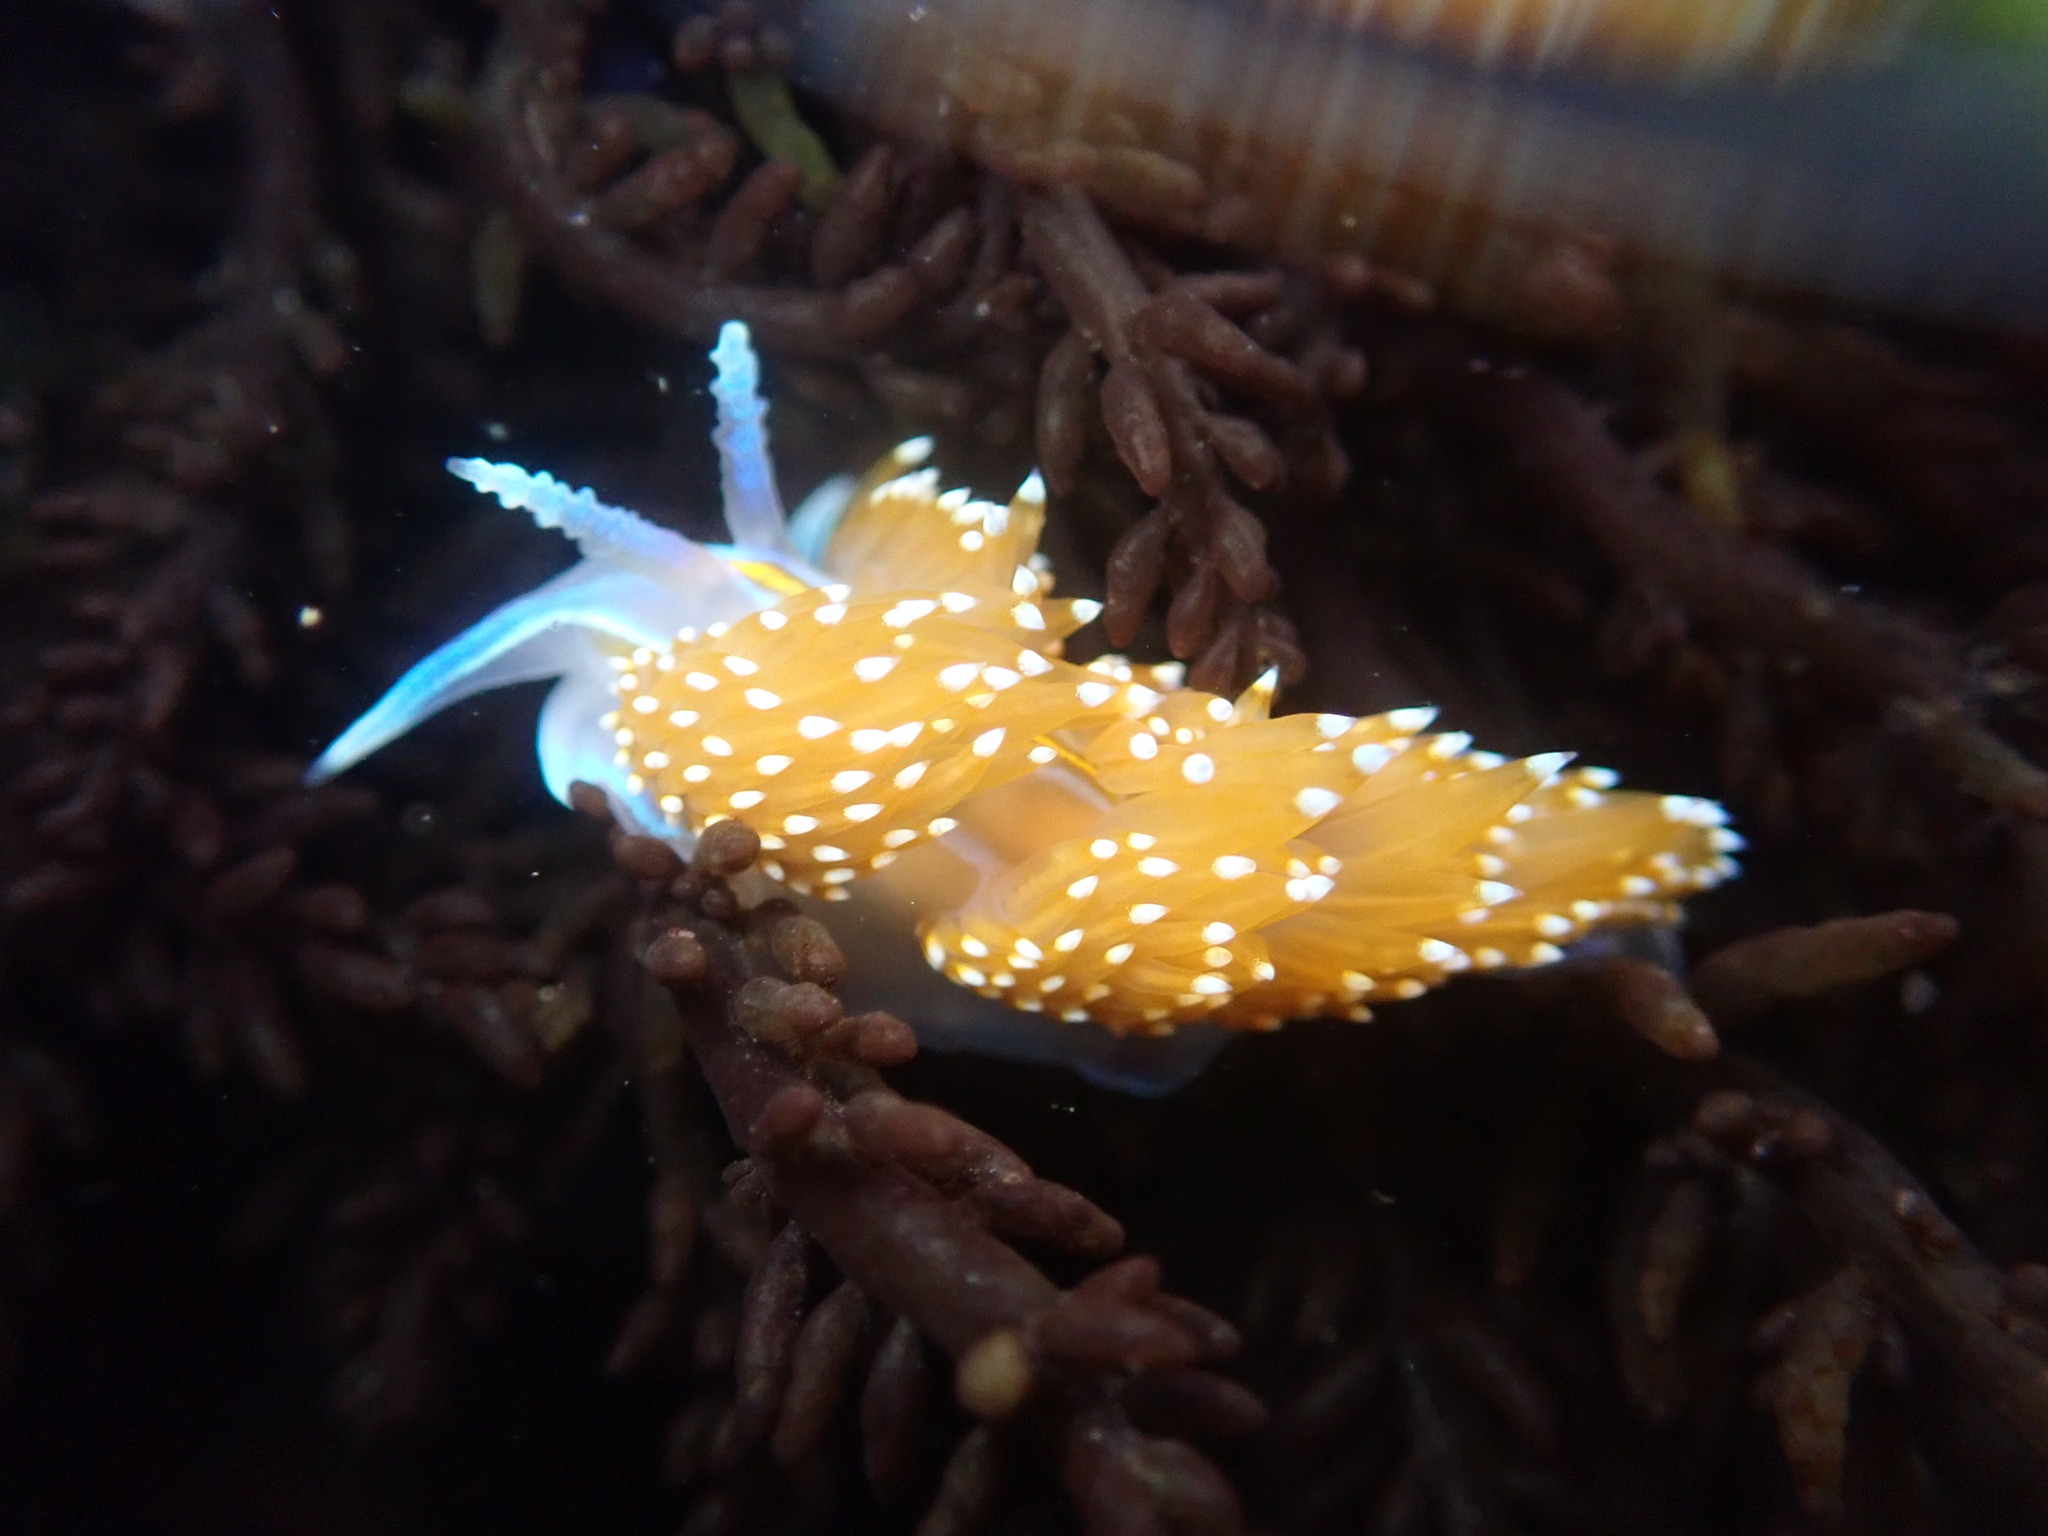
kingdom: Animalia
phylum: Mollusca
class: Gastropoda
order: Nudibranchia
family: Myrrhinidae
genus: Hermissenda
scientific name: Hermissenda opalescens
